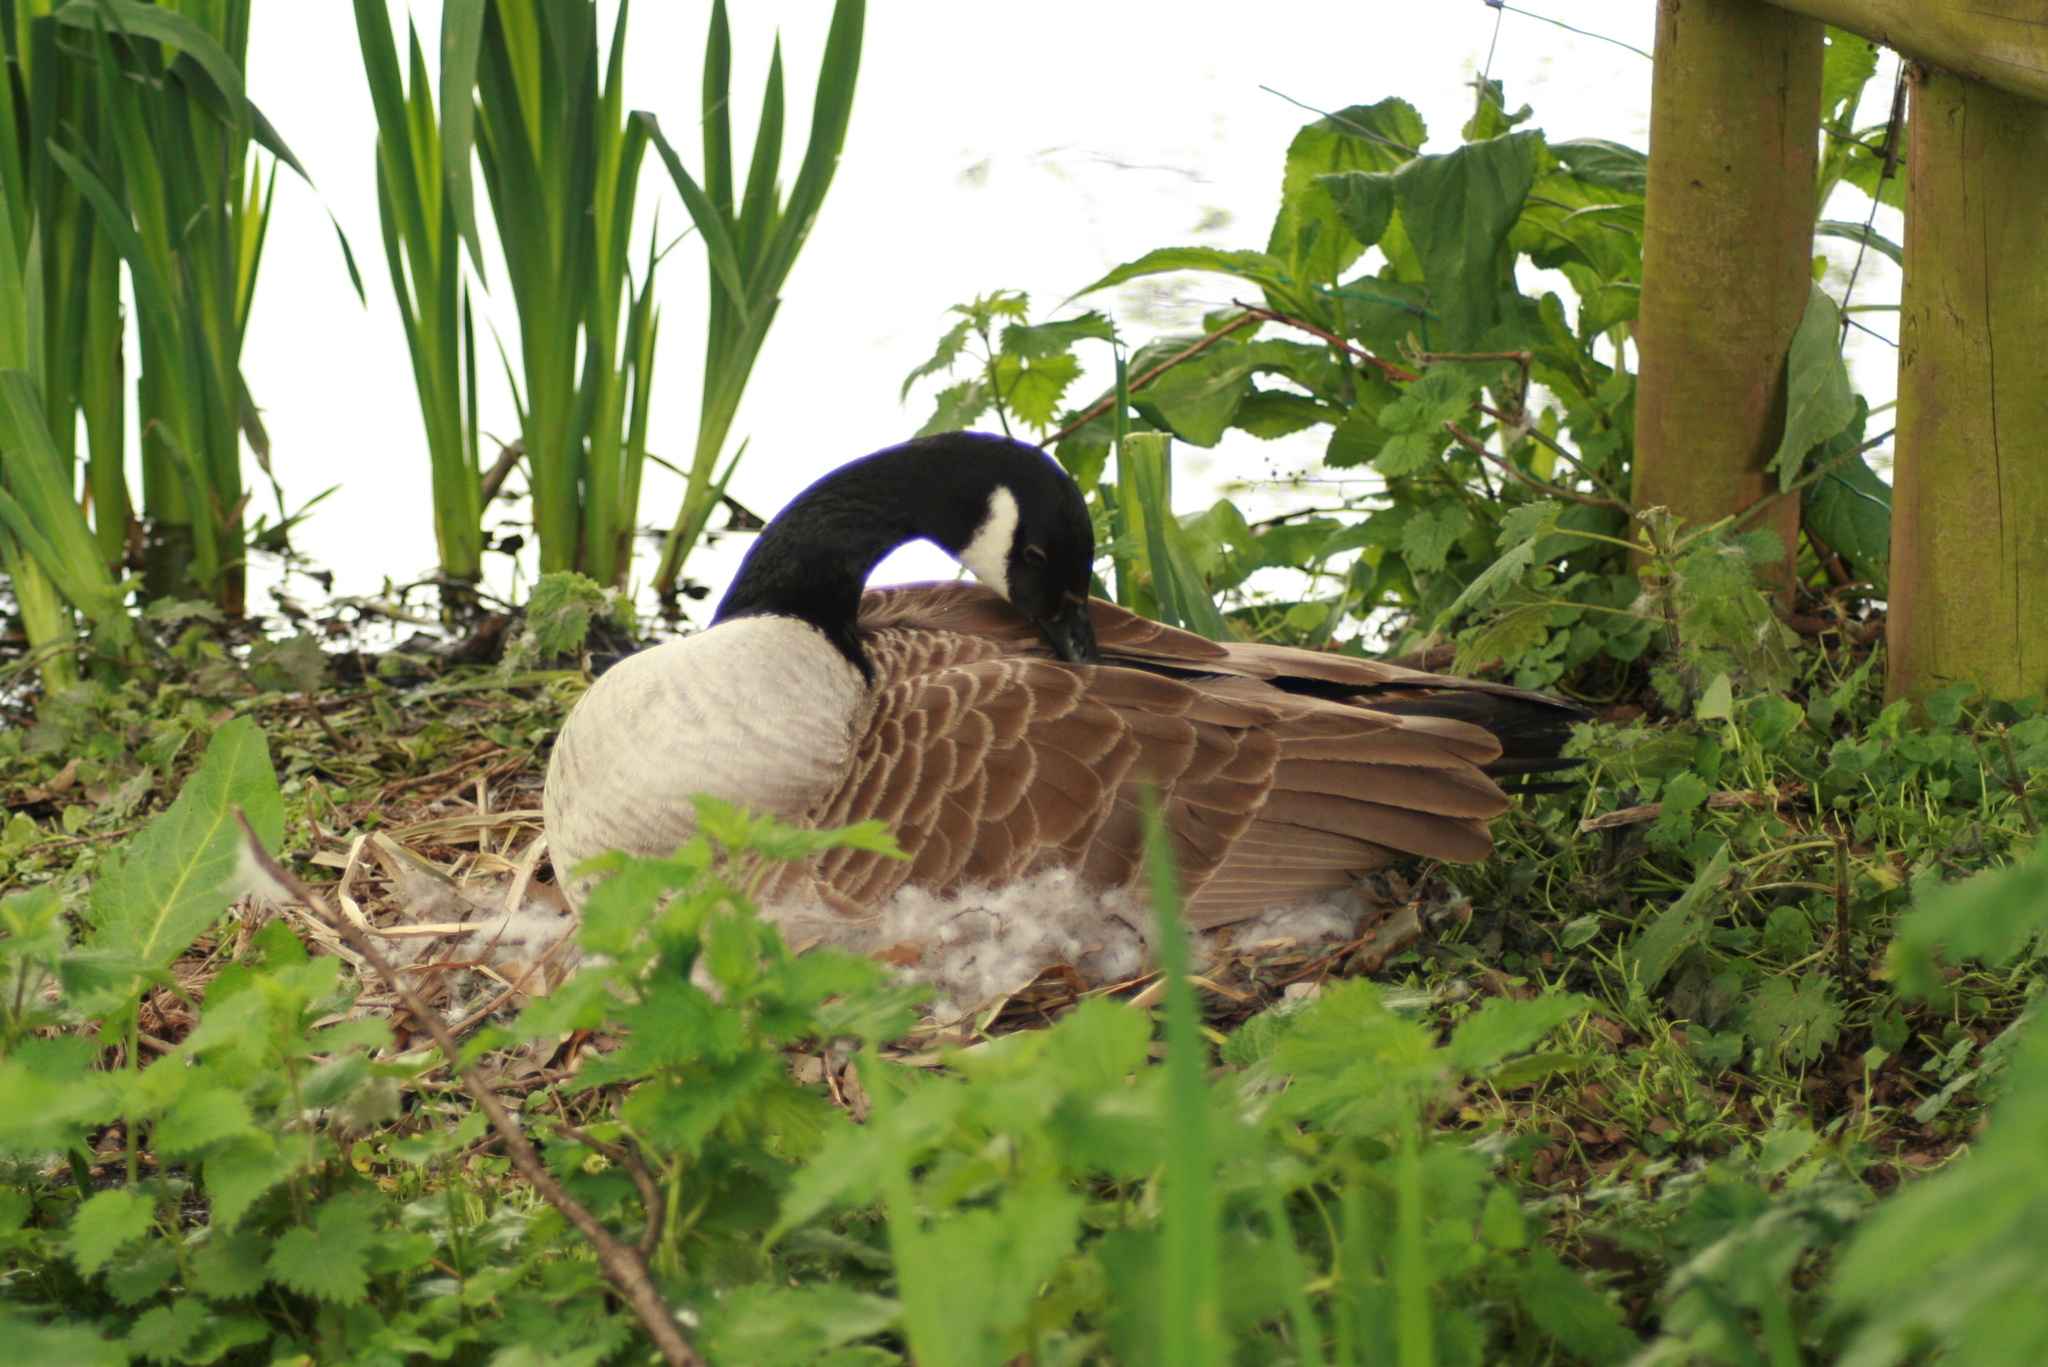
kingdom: Animalia
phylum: Chordata
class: Aves
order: Anseriformes
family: Anatidae
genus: Branta
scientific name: Branta canadensis
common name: Canada goose
